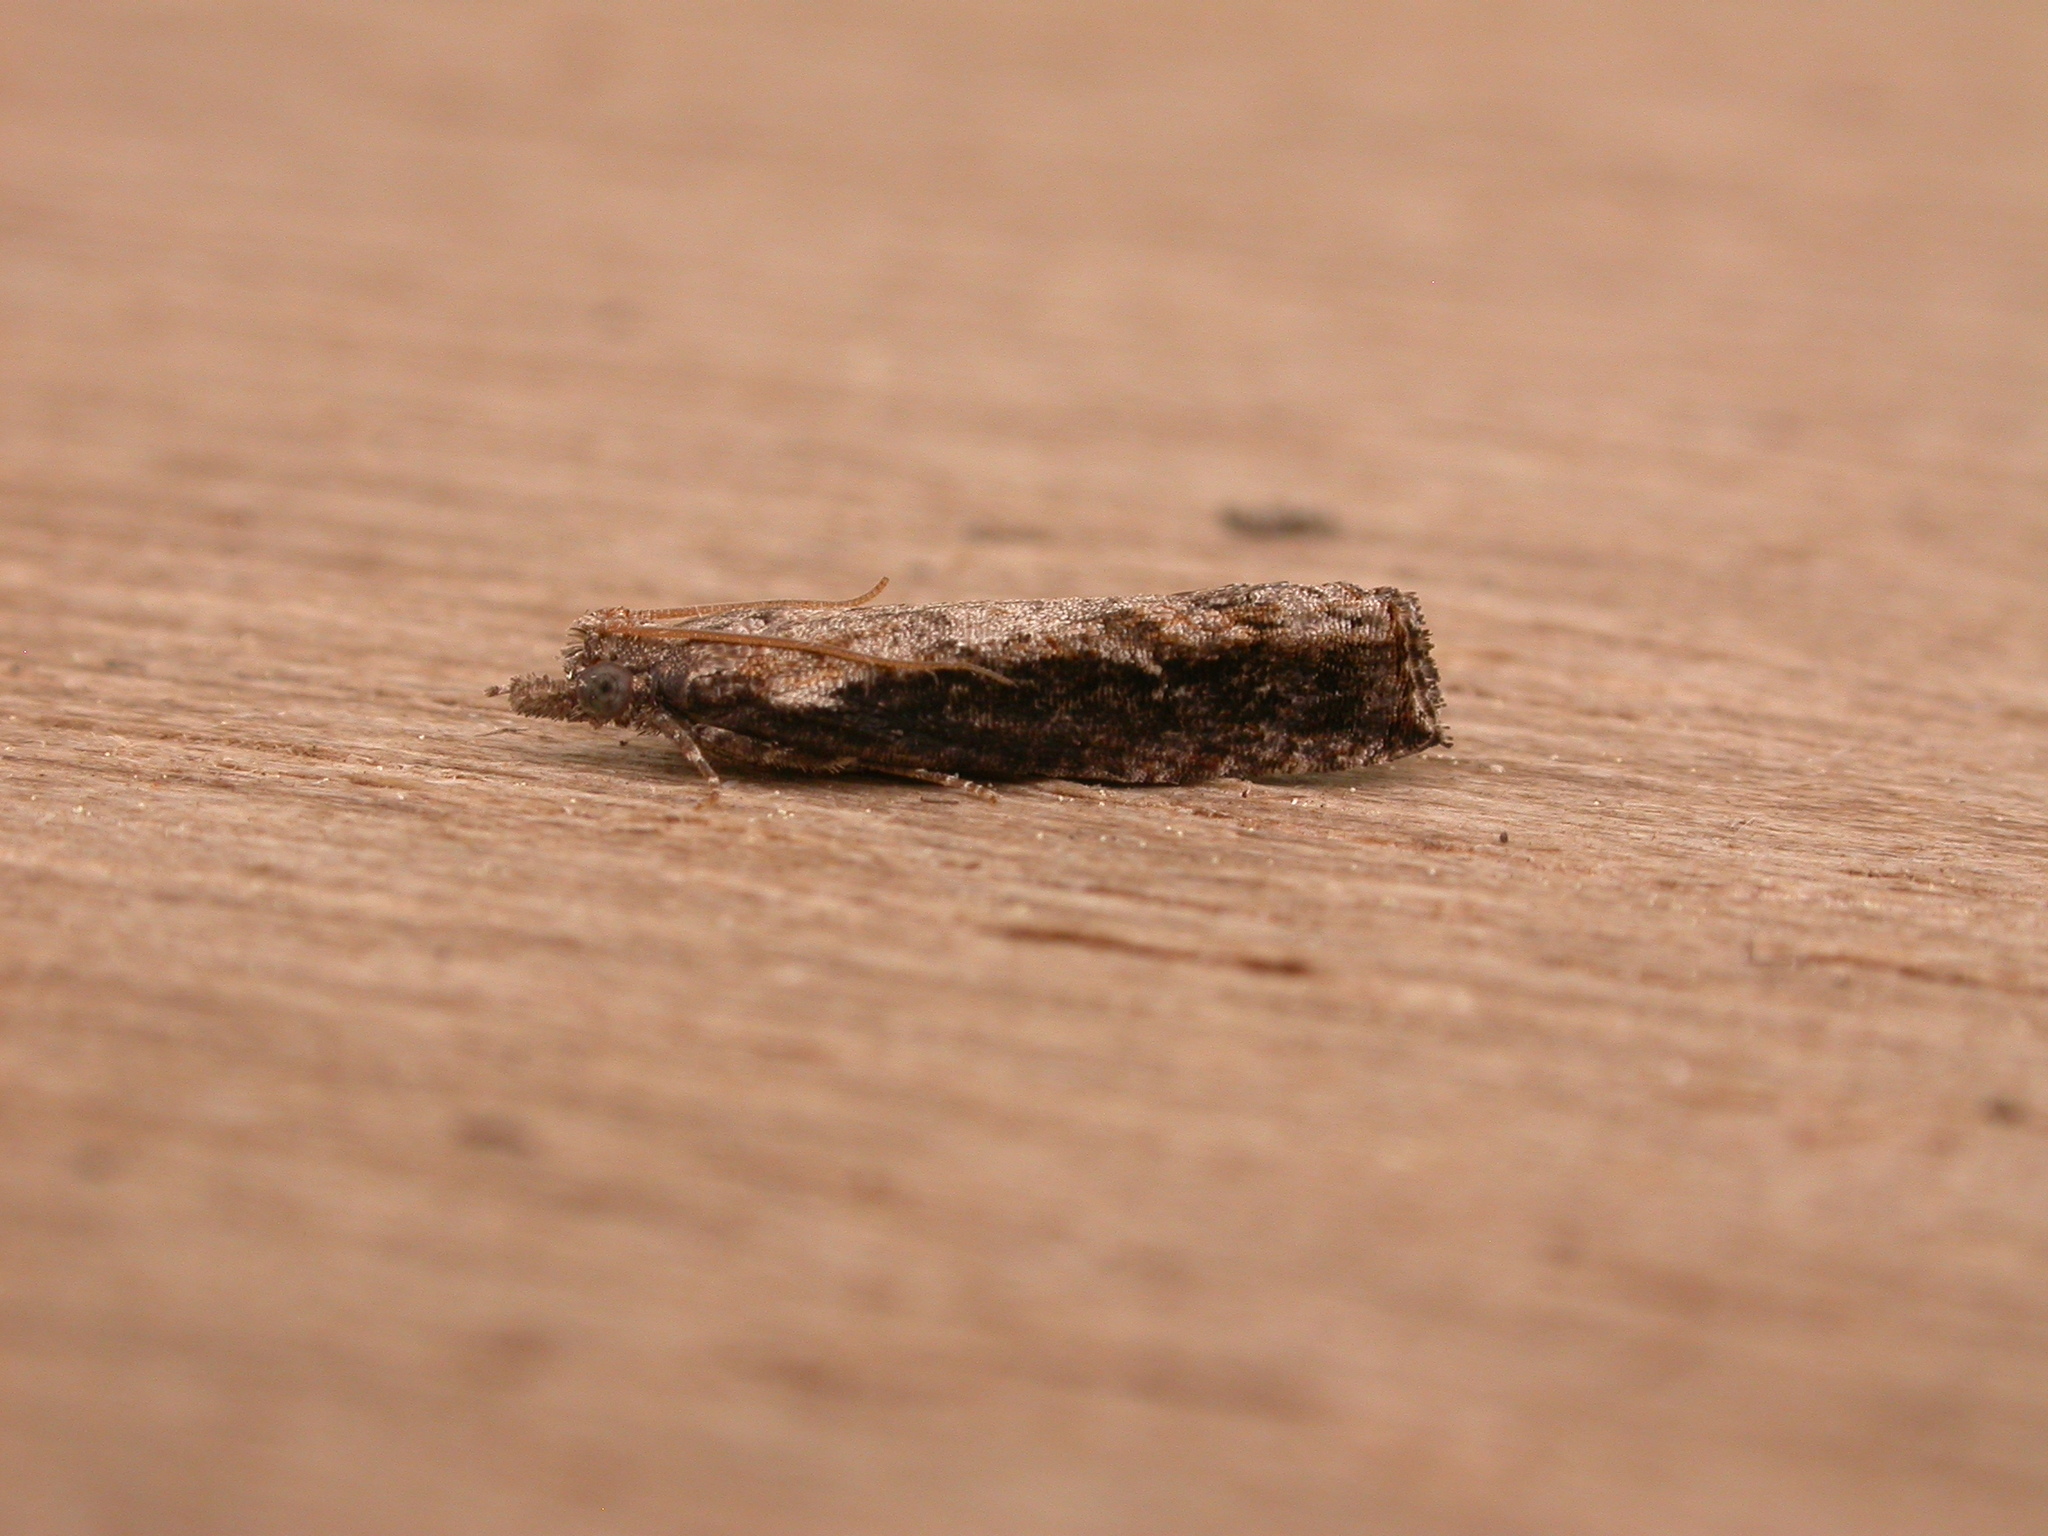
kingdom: Animalia
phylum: Arthropoda
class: Insecta
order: Lepidoptera
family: Tortricidae
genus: Strepsicrates
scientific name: Strepsicrates infensa
